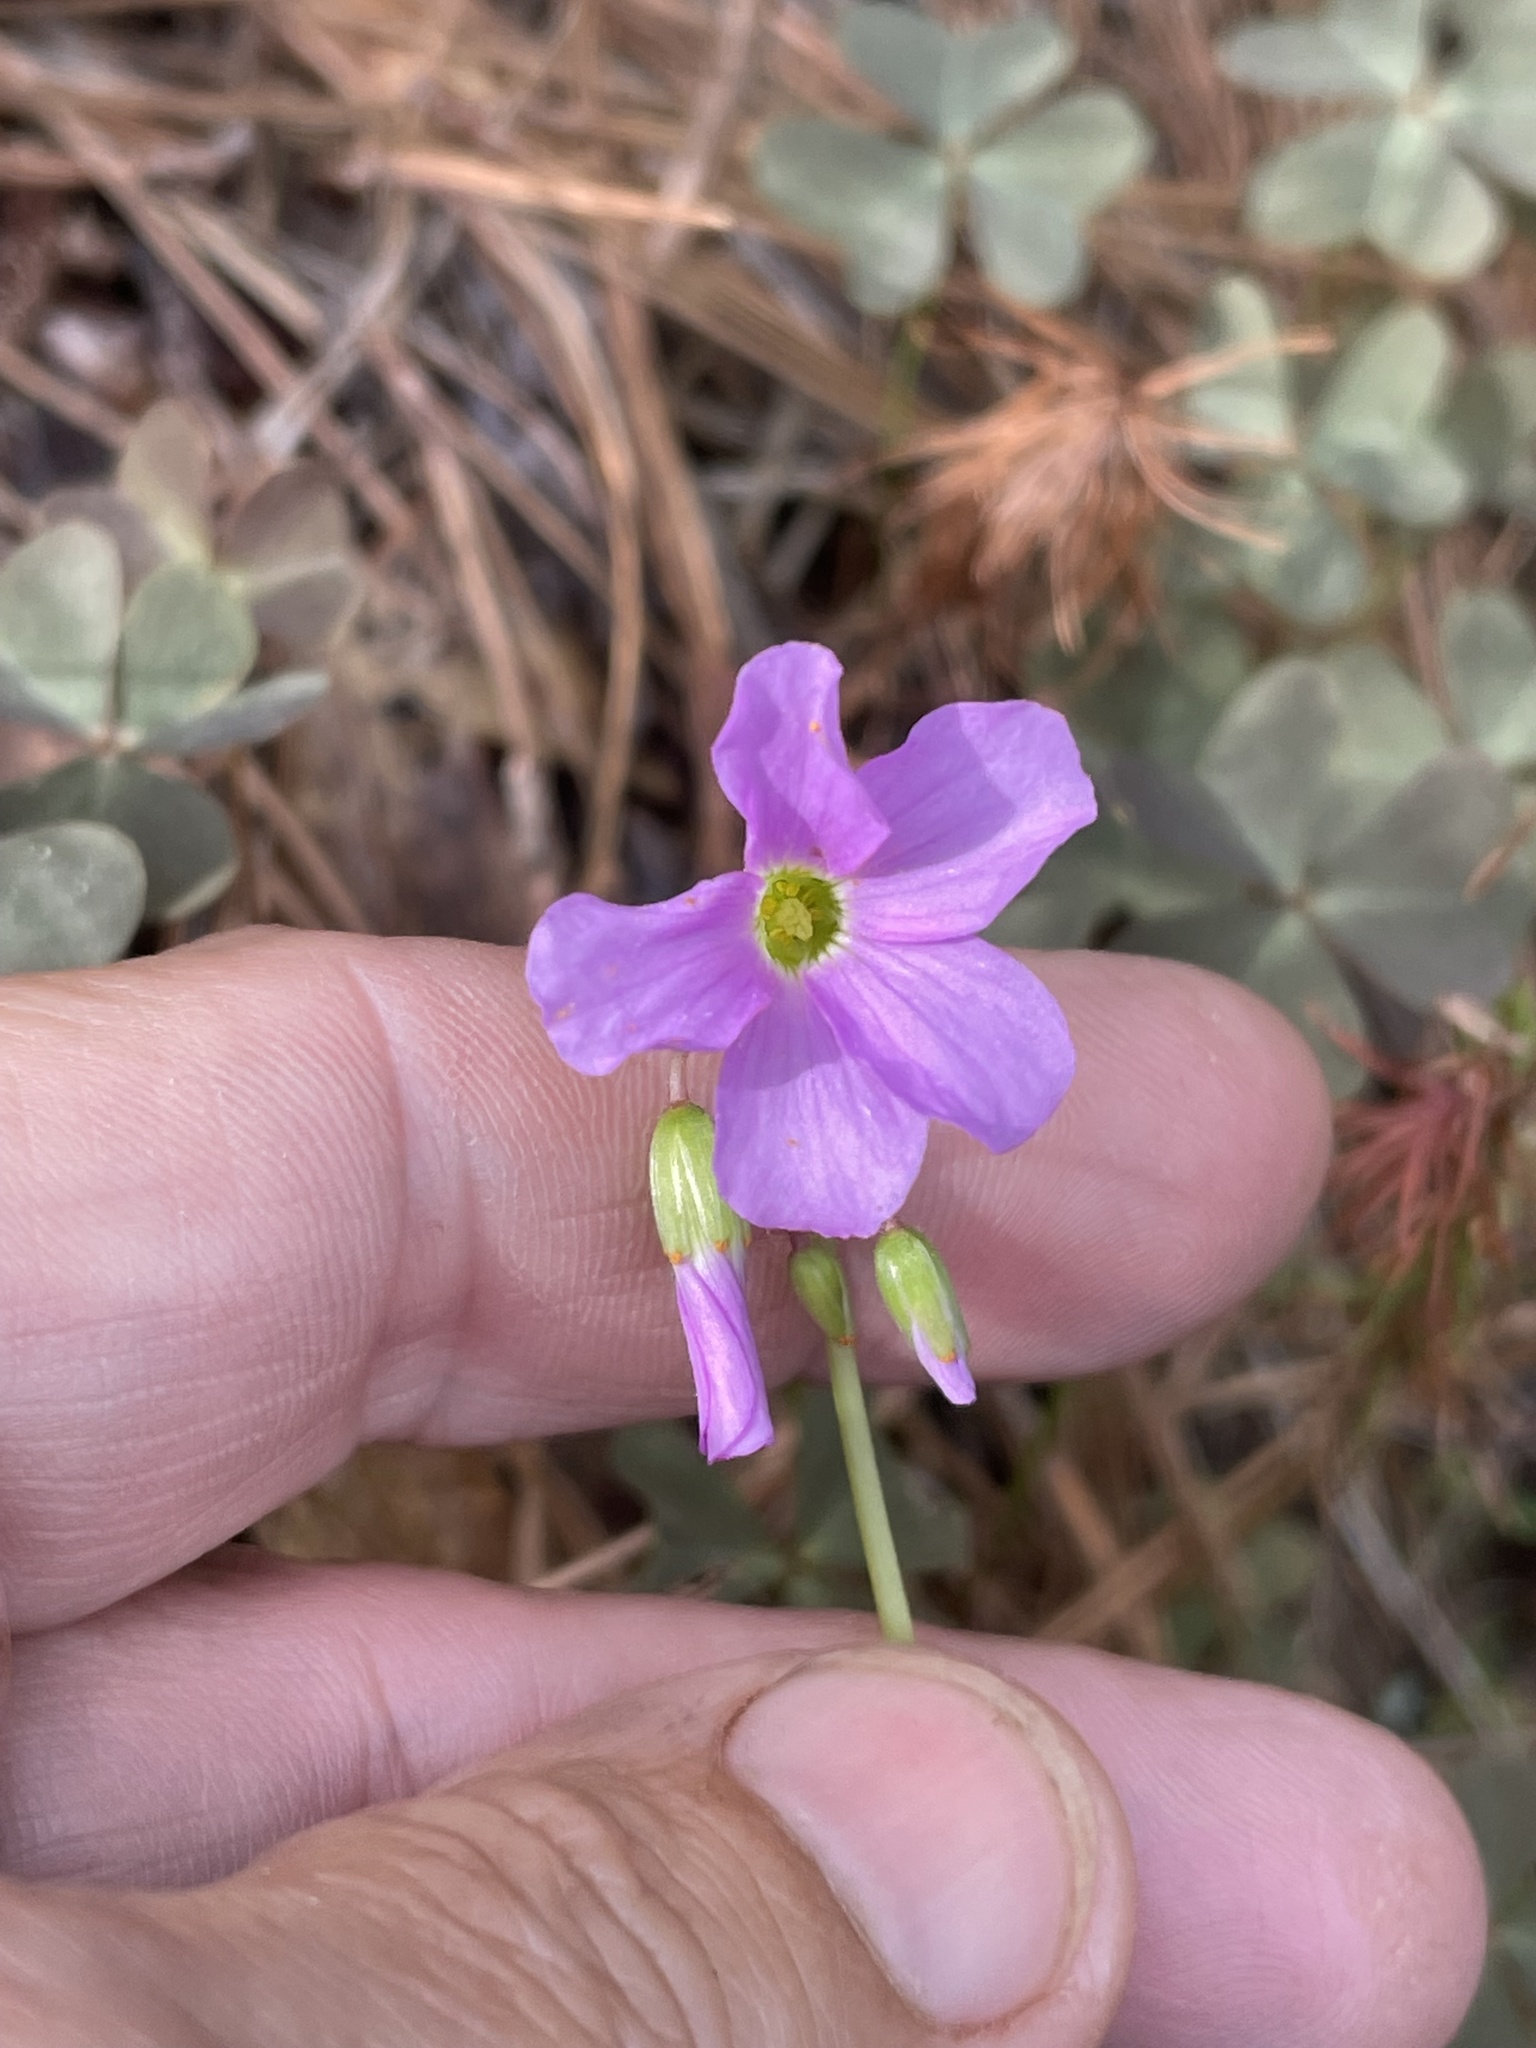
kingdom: Plantae
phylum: Tracheophyta
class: Magnoliopsida
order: Oxalidales
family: Oxalidaceae
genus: Oxalis
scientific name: Oxalis violacea
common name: Violet wood-sorrel
